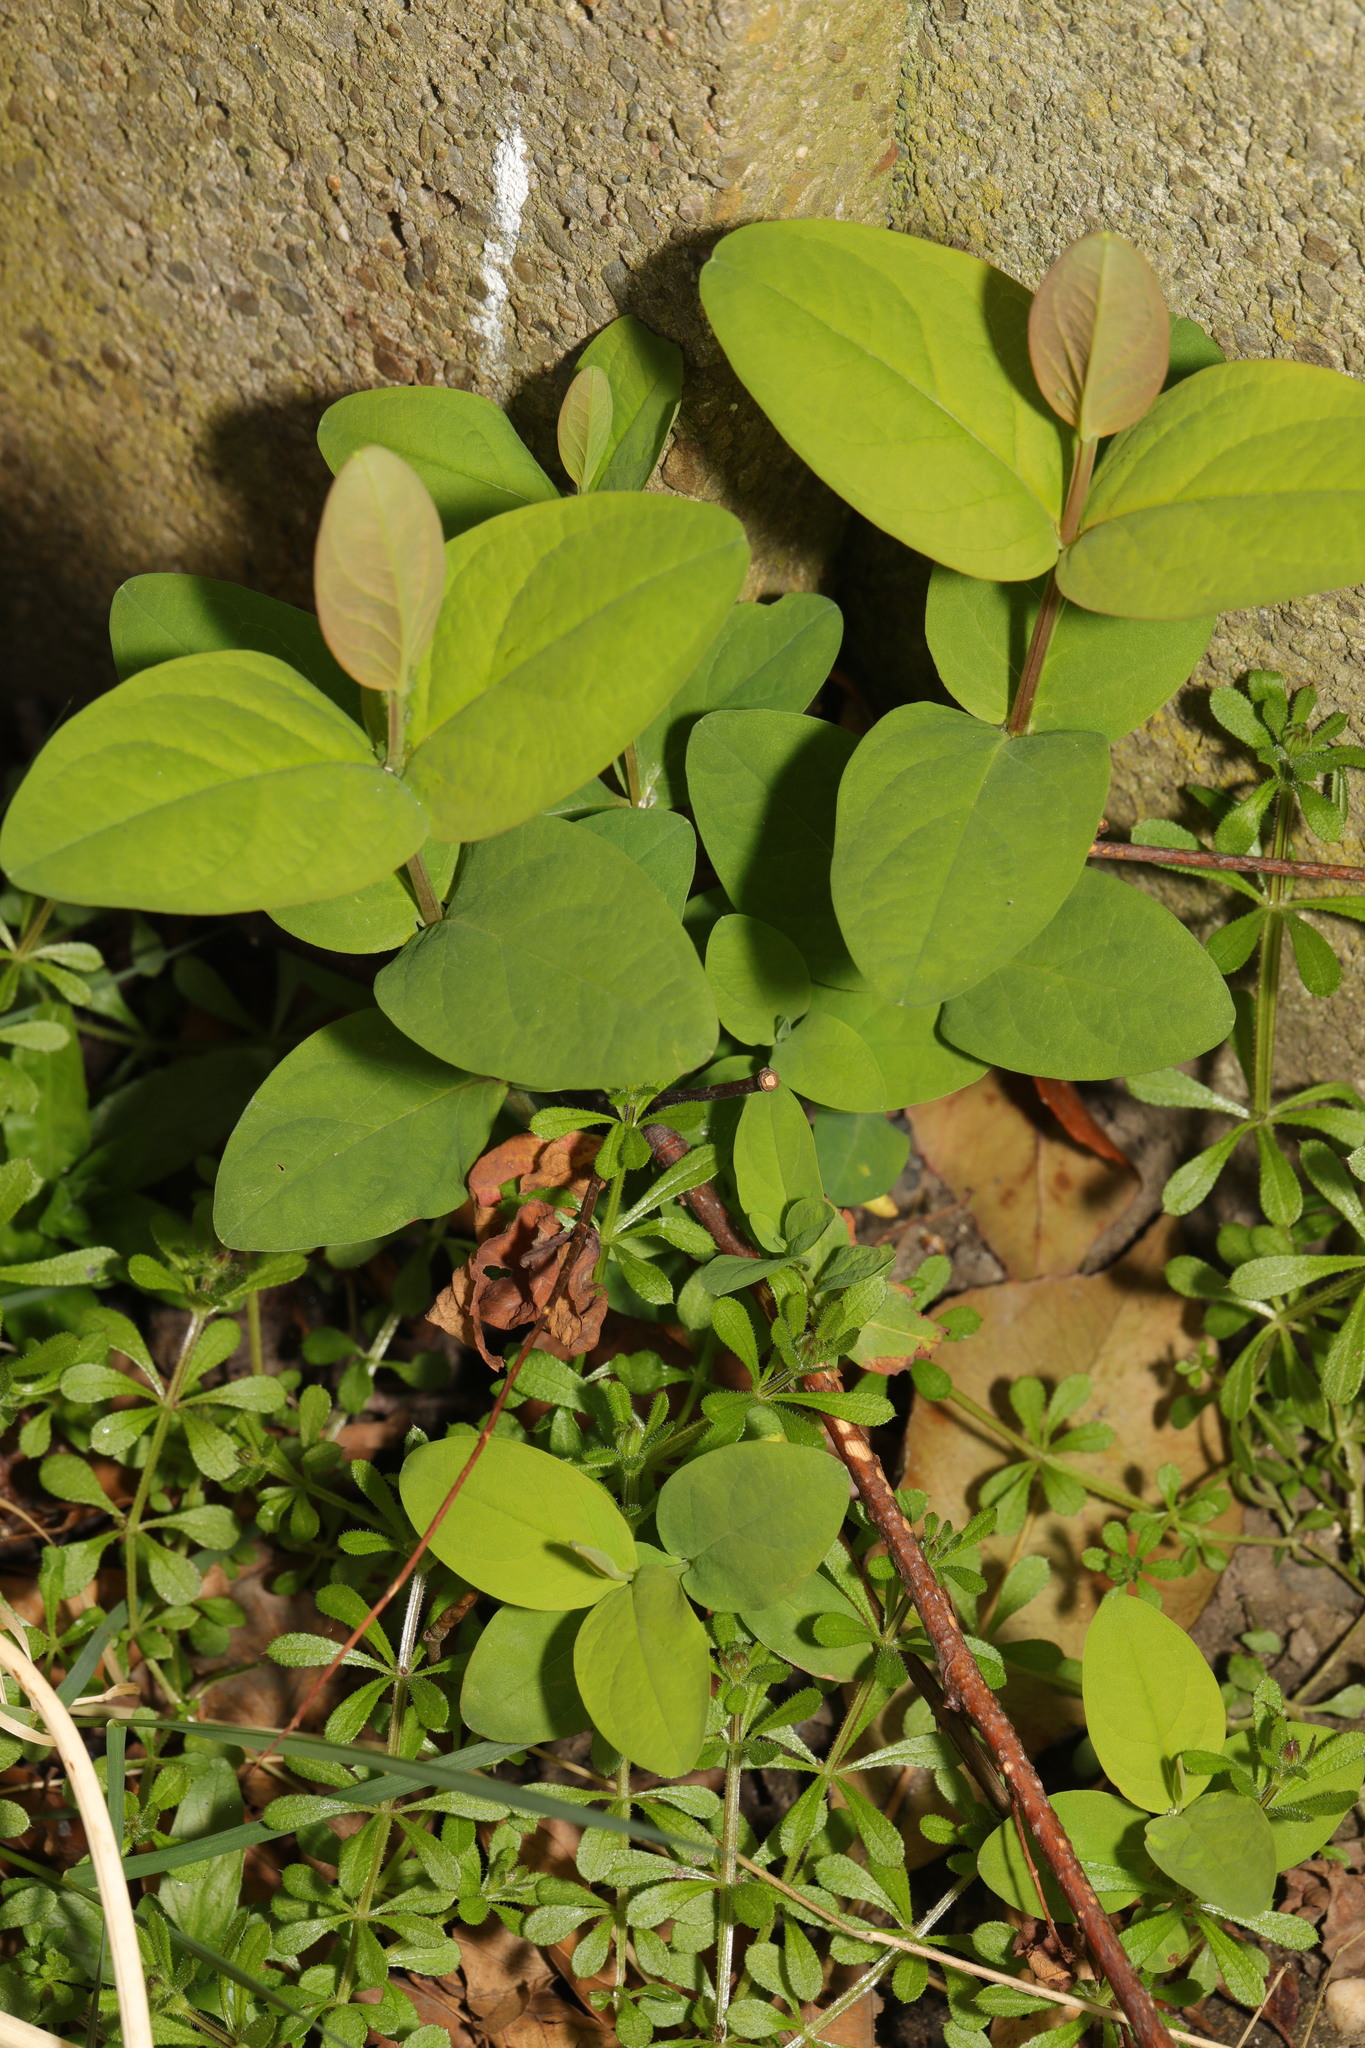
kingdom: Plantae
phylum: Tracheophyta
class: Magnoliopsida
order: Malpighiales
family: Hypericaceae
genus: Hypericum
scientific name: Hypericum androsaemum
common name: Sweet-amber
